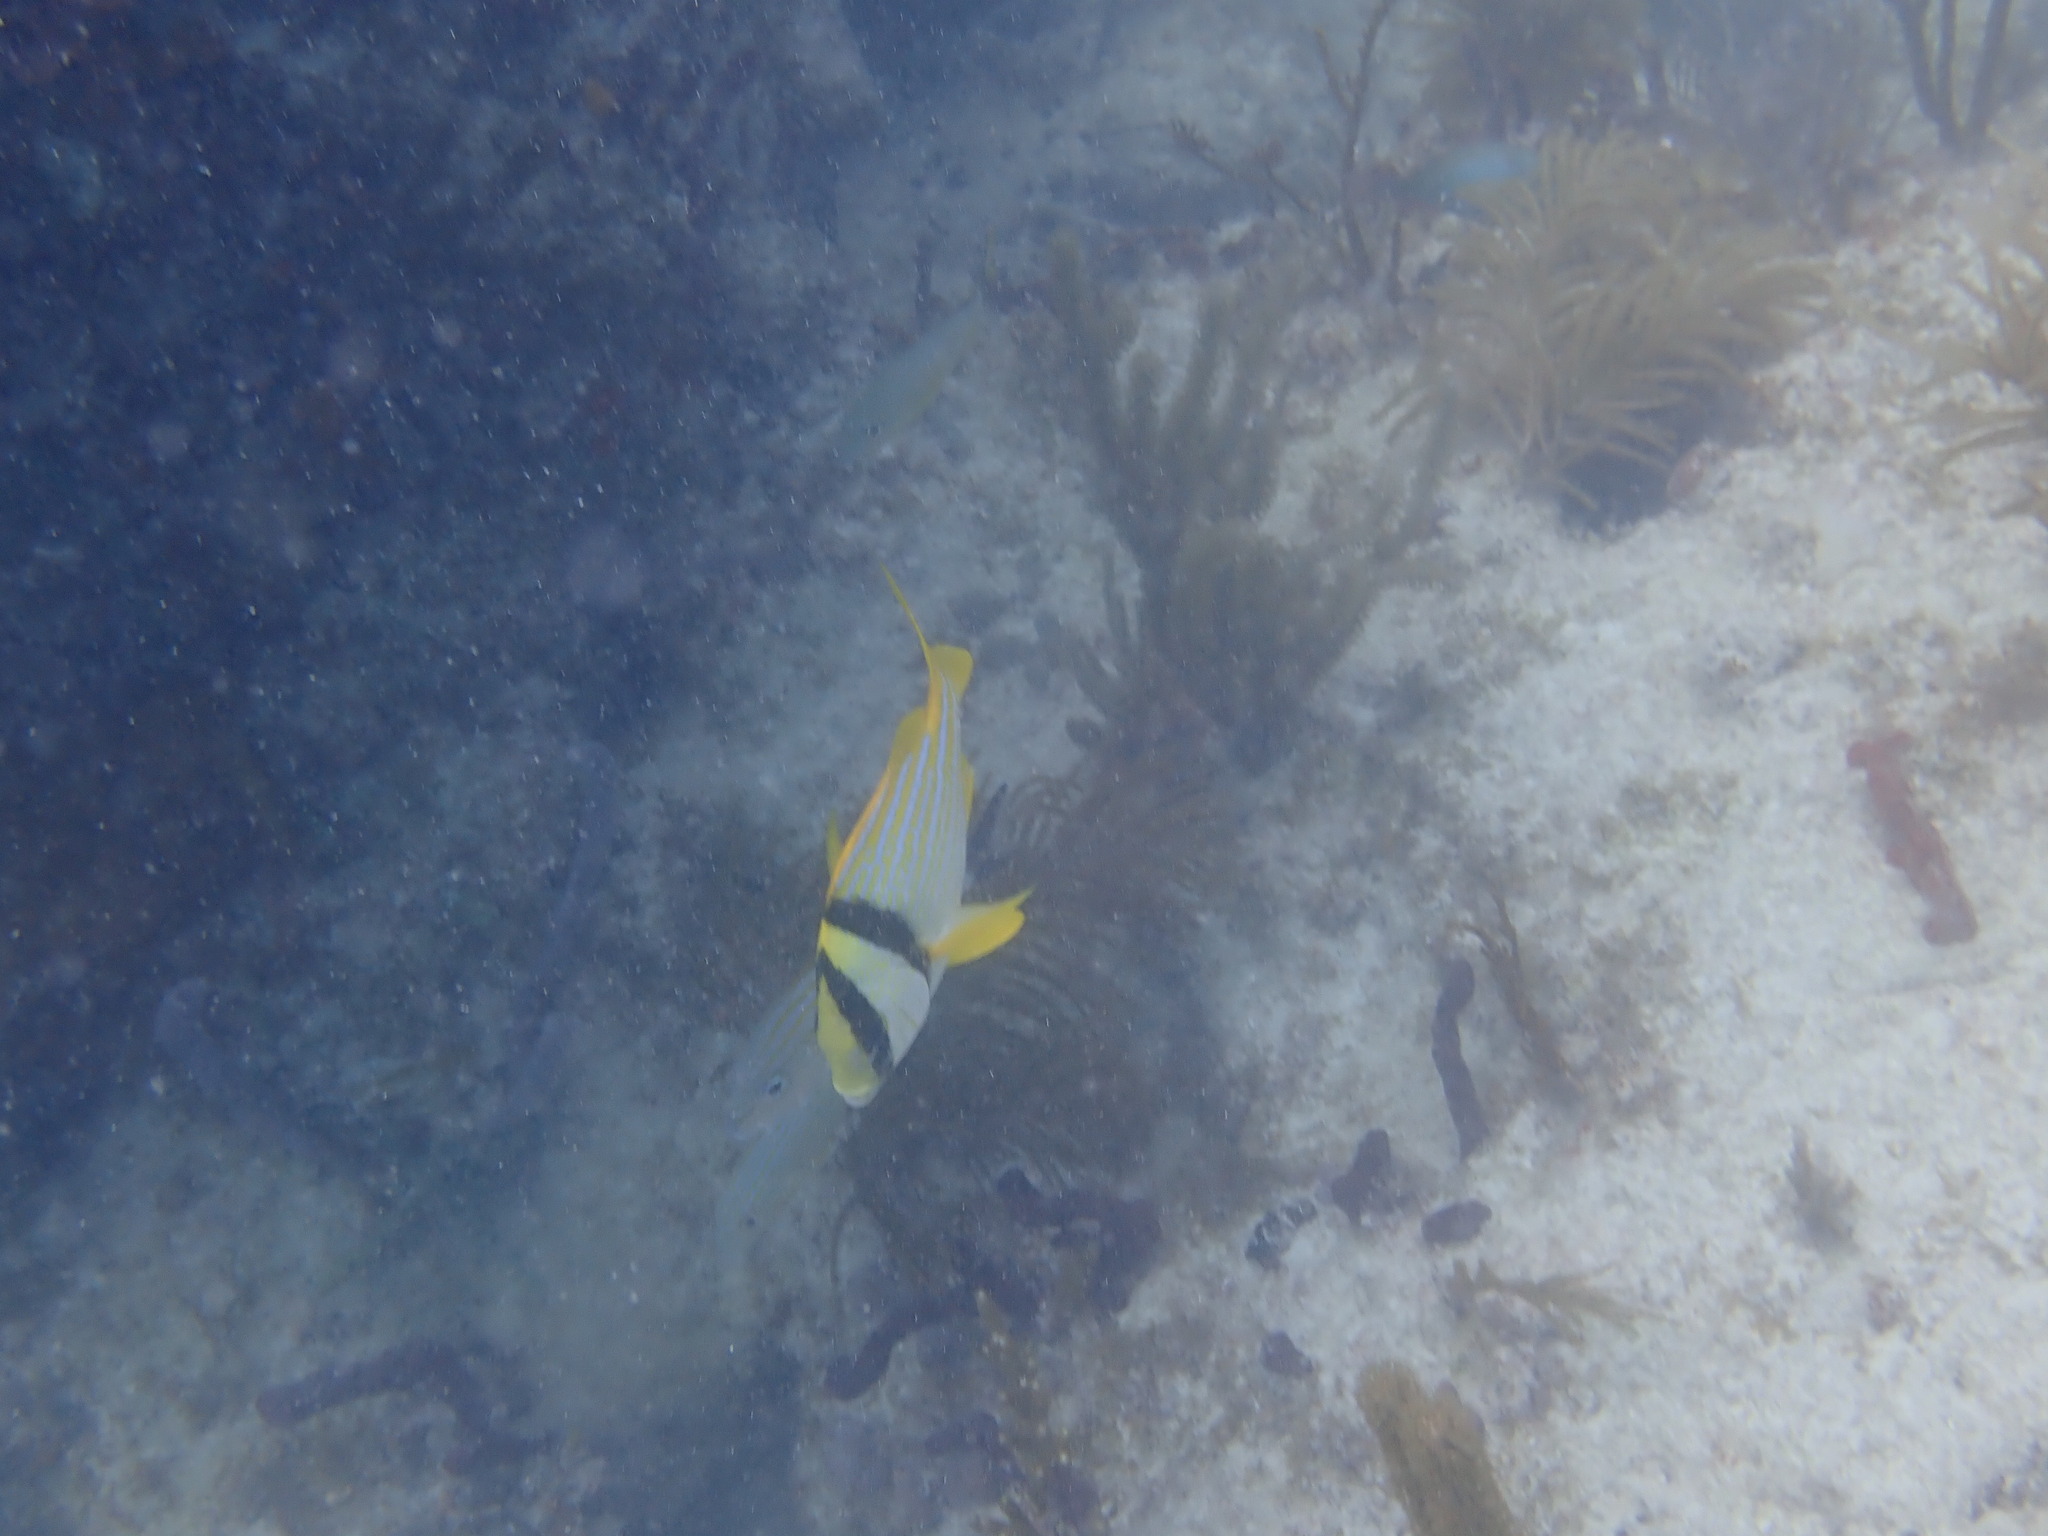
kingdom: Animalia
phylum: Chordata
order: Perciformes
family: Haemulidae
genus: Anisotremus
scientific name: Anisotremus virginicus
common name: Porkfish
